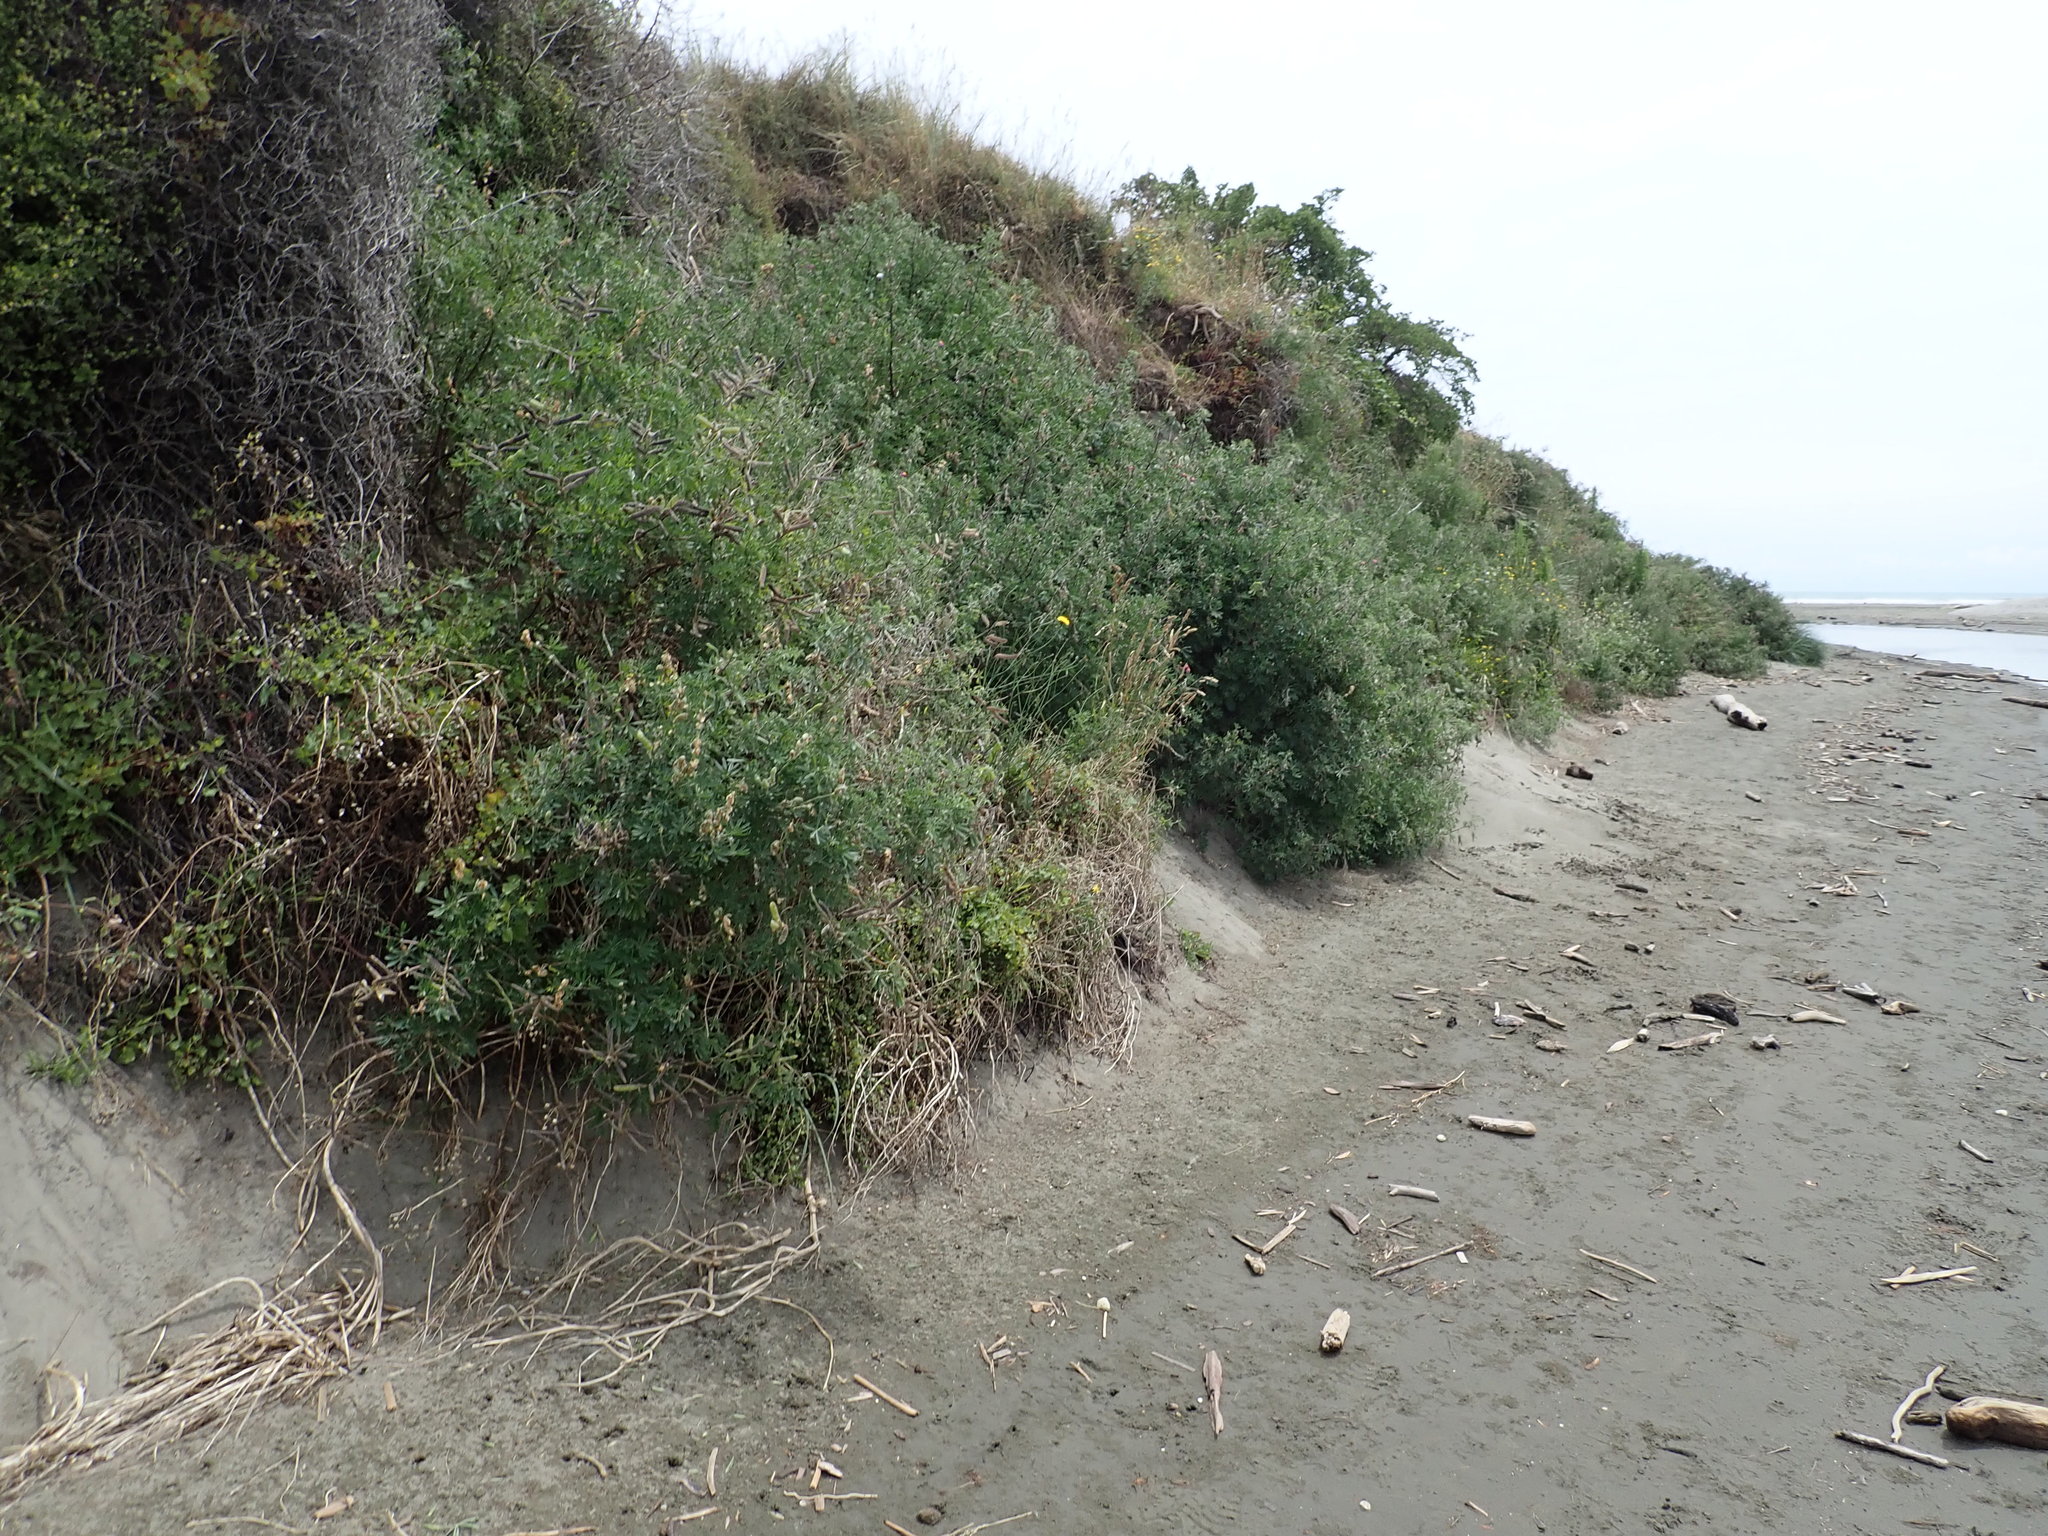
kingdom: Plantae
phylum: Tracheophyta
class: Magnoliopsida
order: Fabales
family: Fabaceae
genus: Lupinus
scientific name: Lupinus arboreus
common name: Yellow bush lupine
